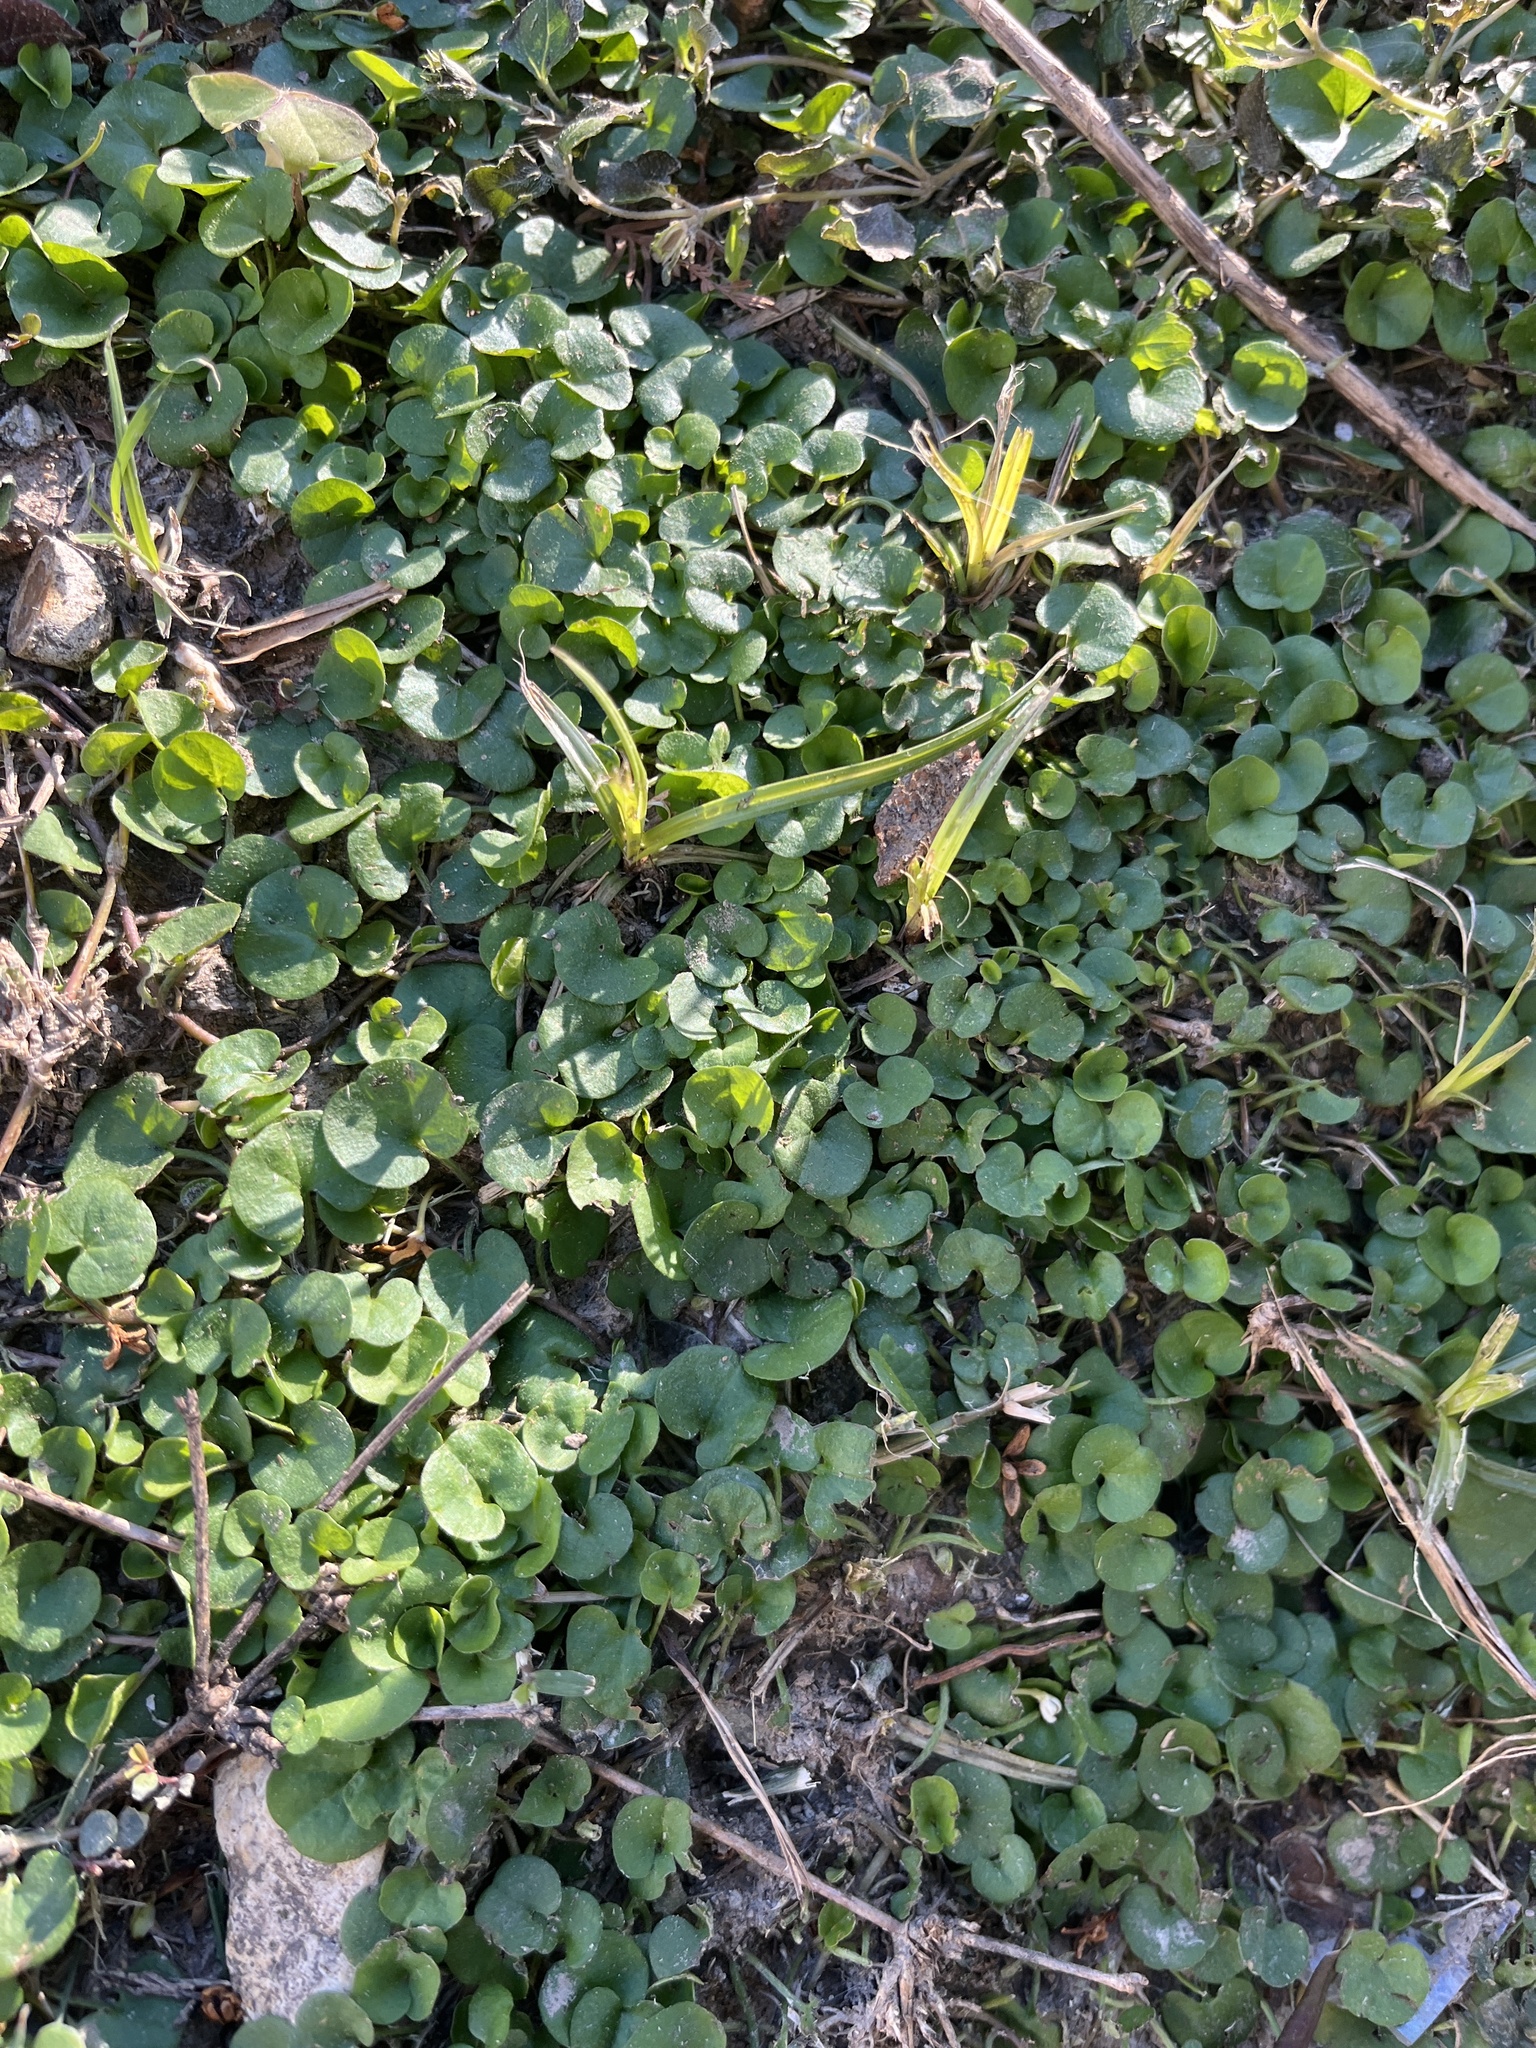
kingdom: Plantae
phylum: Tracheophyta
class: Magnoliopsida
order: Solanales
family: Convolvulaceae
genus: Dichondra
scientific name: Dichondra carolinensis
